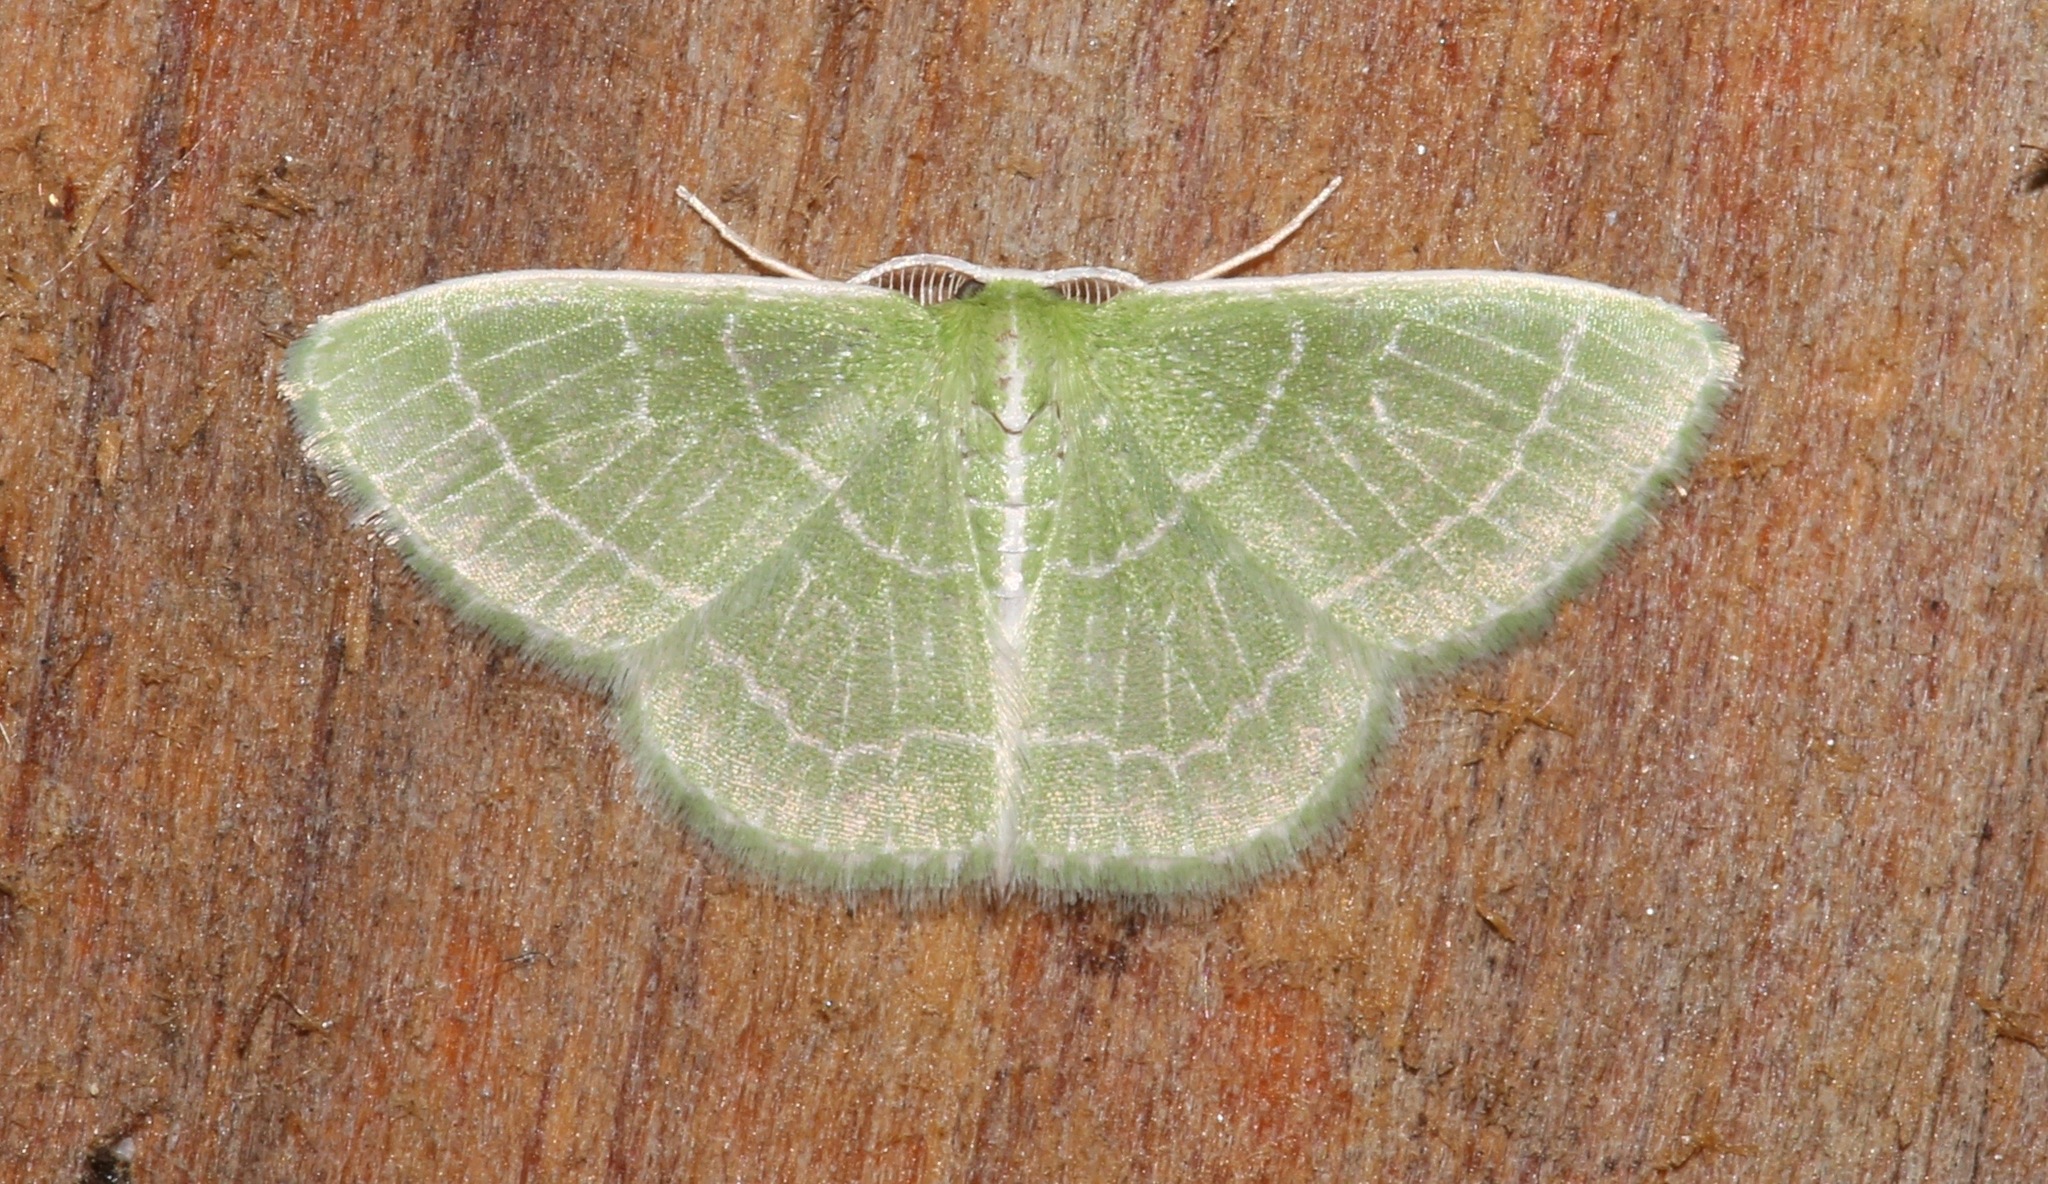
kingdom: Animalia
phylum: Arthropoda
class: Insecta
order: Lepidoptera
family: Geometridae
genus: Synchlora
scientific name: Synchlora aerata
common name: Wavy-lined emerald
